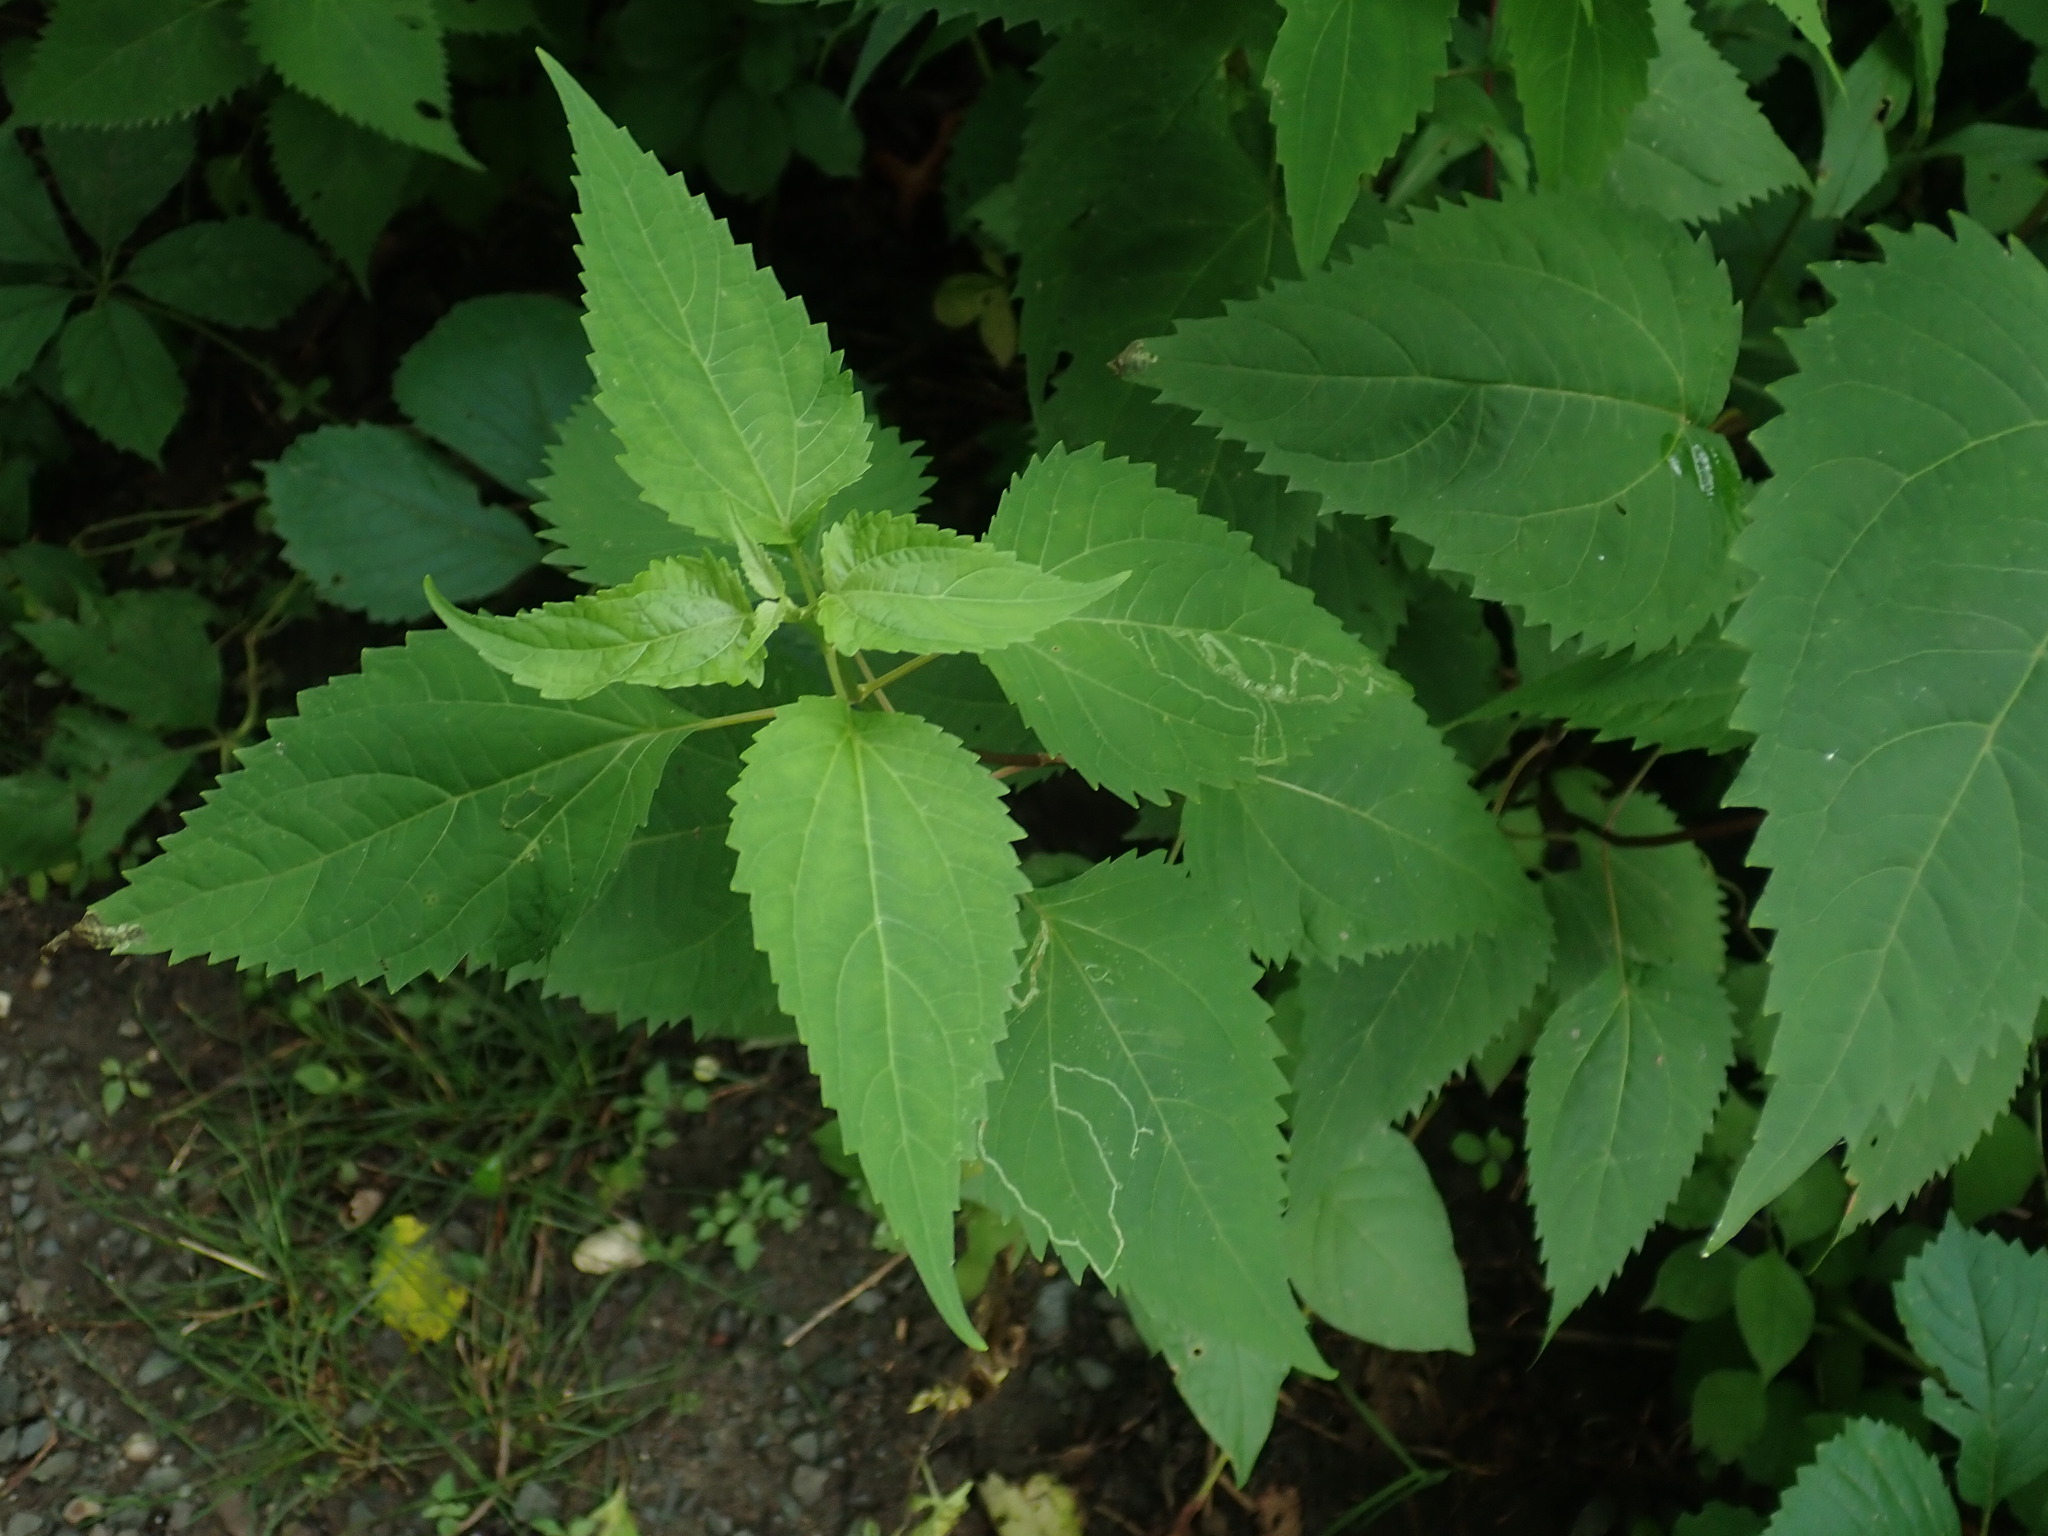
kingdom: Plantae
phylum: Tracheophyta
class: Magnoliopsida
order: Asterales
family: Asteraceae
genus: Ageratina
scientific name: Ageratina altissima
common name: White snakeroot
